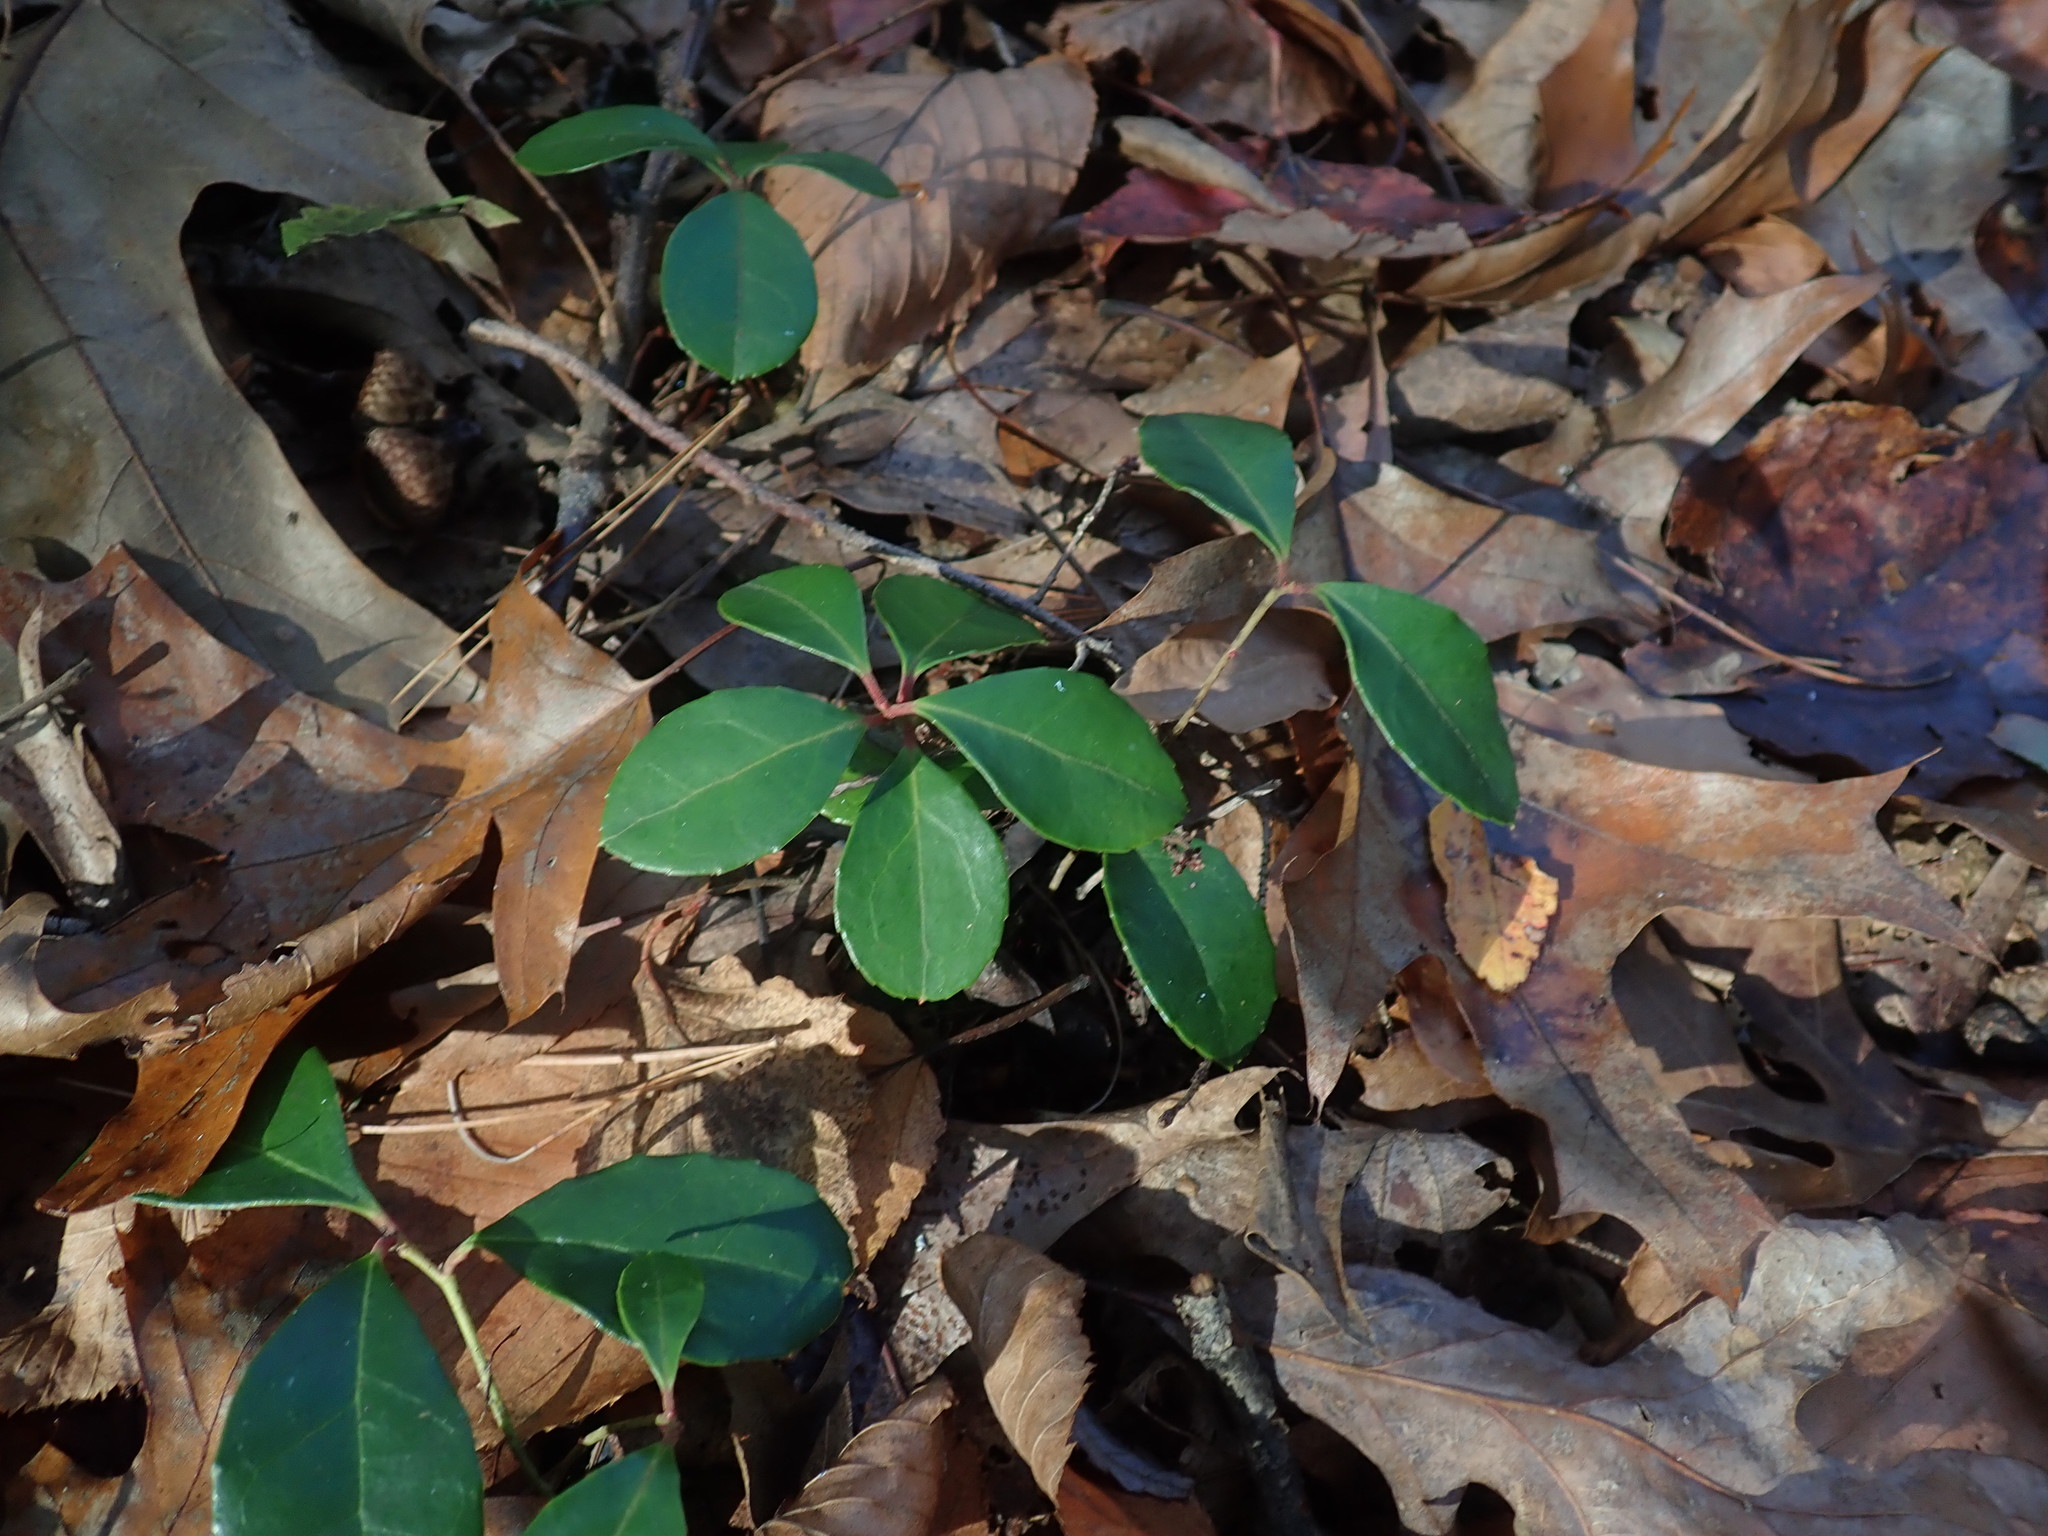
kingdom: Plantae
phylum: Tracheophyta
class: Magnoliopsida
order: Ericales
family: Ericaceae
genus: Gaultheria
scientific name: Gaultheria procumbens
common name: Checkerberry
